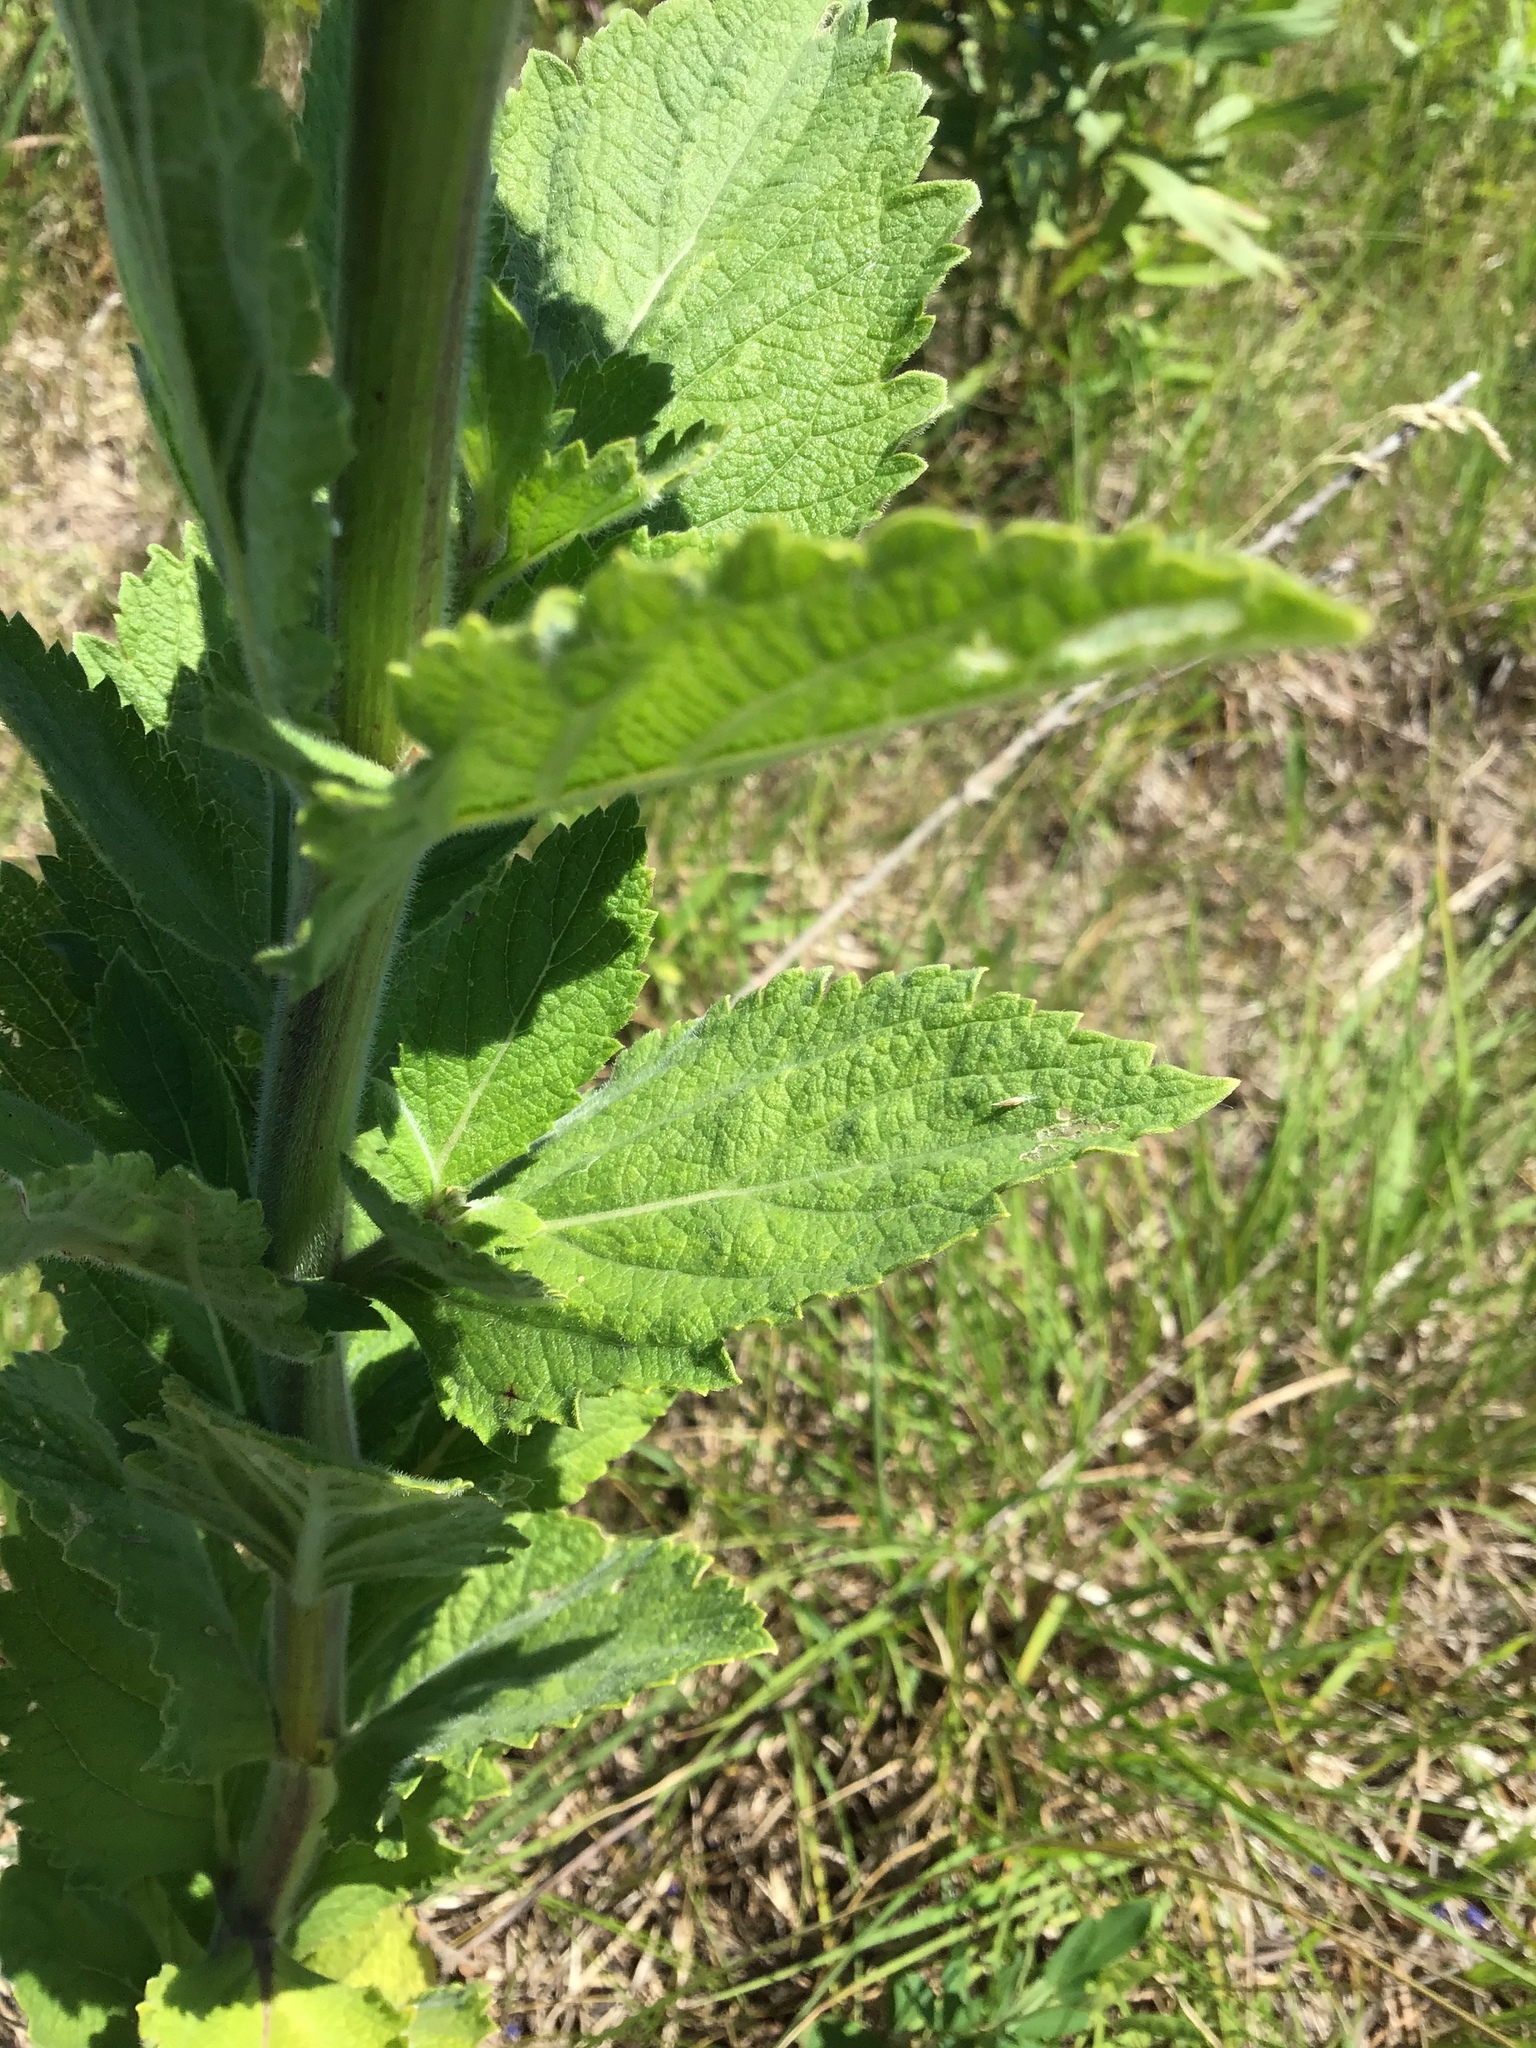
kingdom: Plantae
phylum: Tracheophyta
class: Magnoliopsida
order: Lamiales
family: Verbenaceae
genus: Verbena
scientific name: Verbena stricta
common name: Hoary vervain
